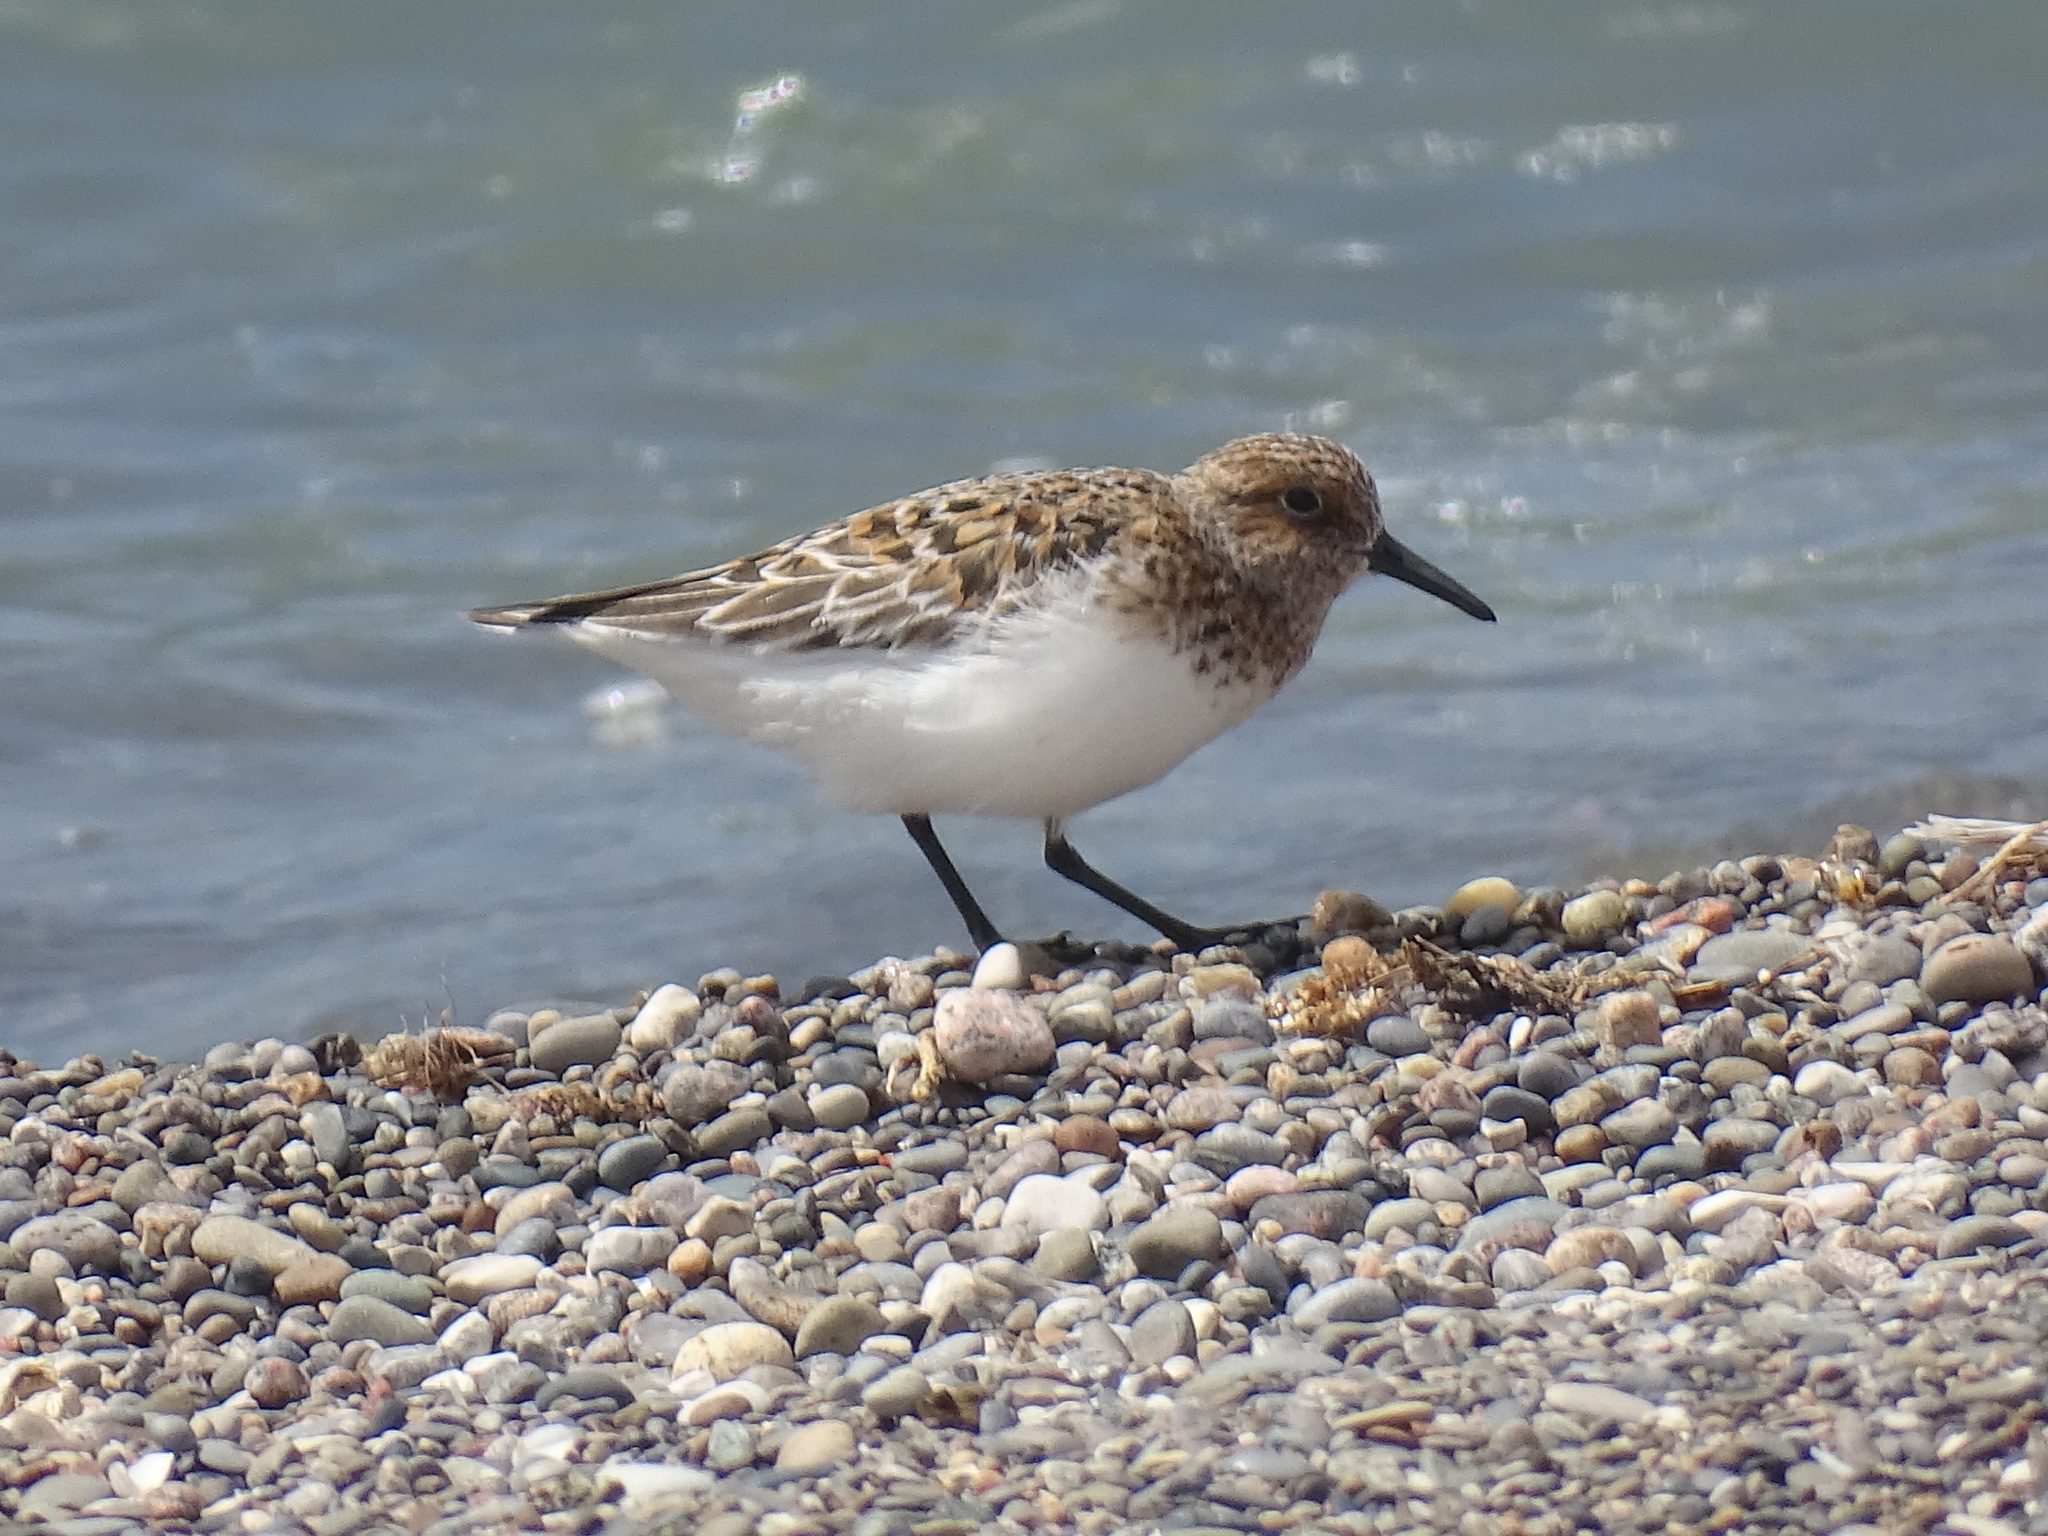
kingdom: Animalia
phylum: Chordata
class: Aves
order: Charadriiformes
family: Scolopacidae
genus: Calidris
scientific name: Calidris alba
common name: Sanderling
